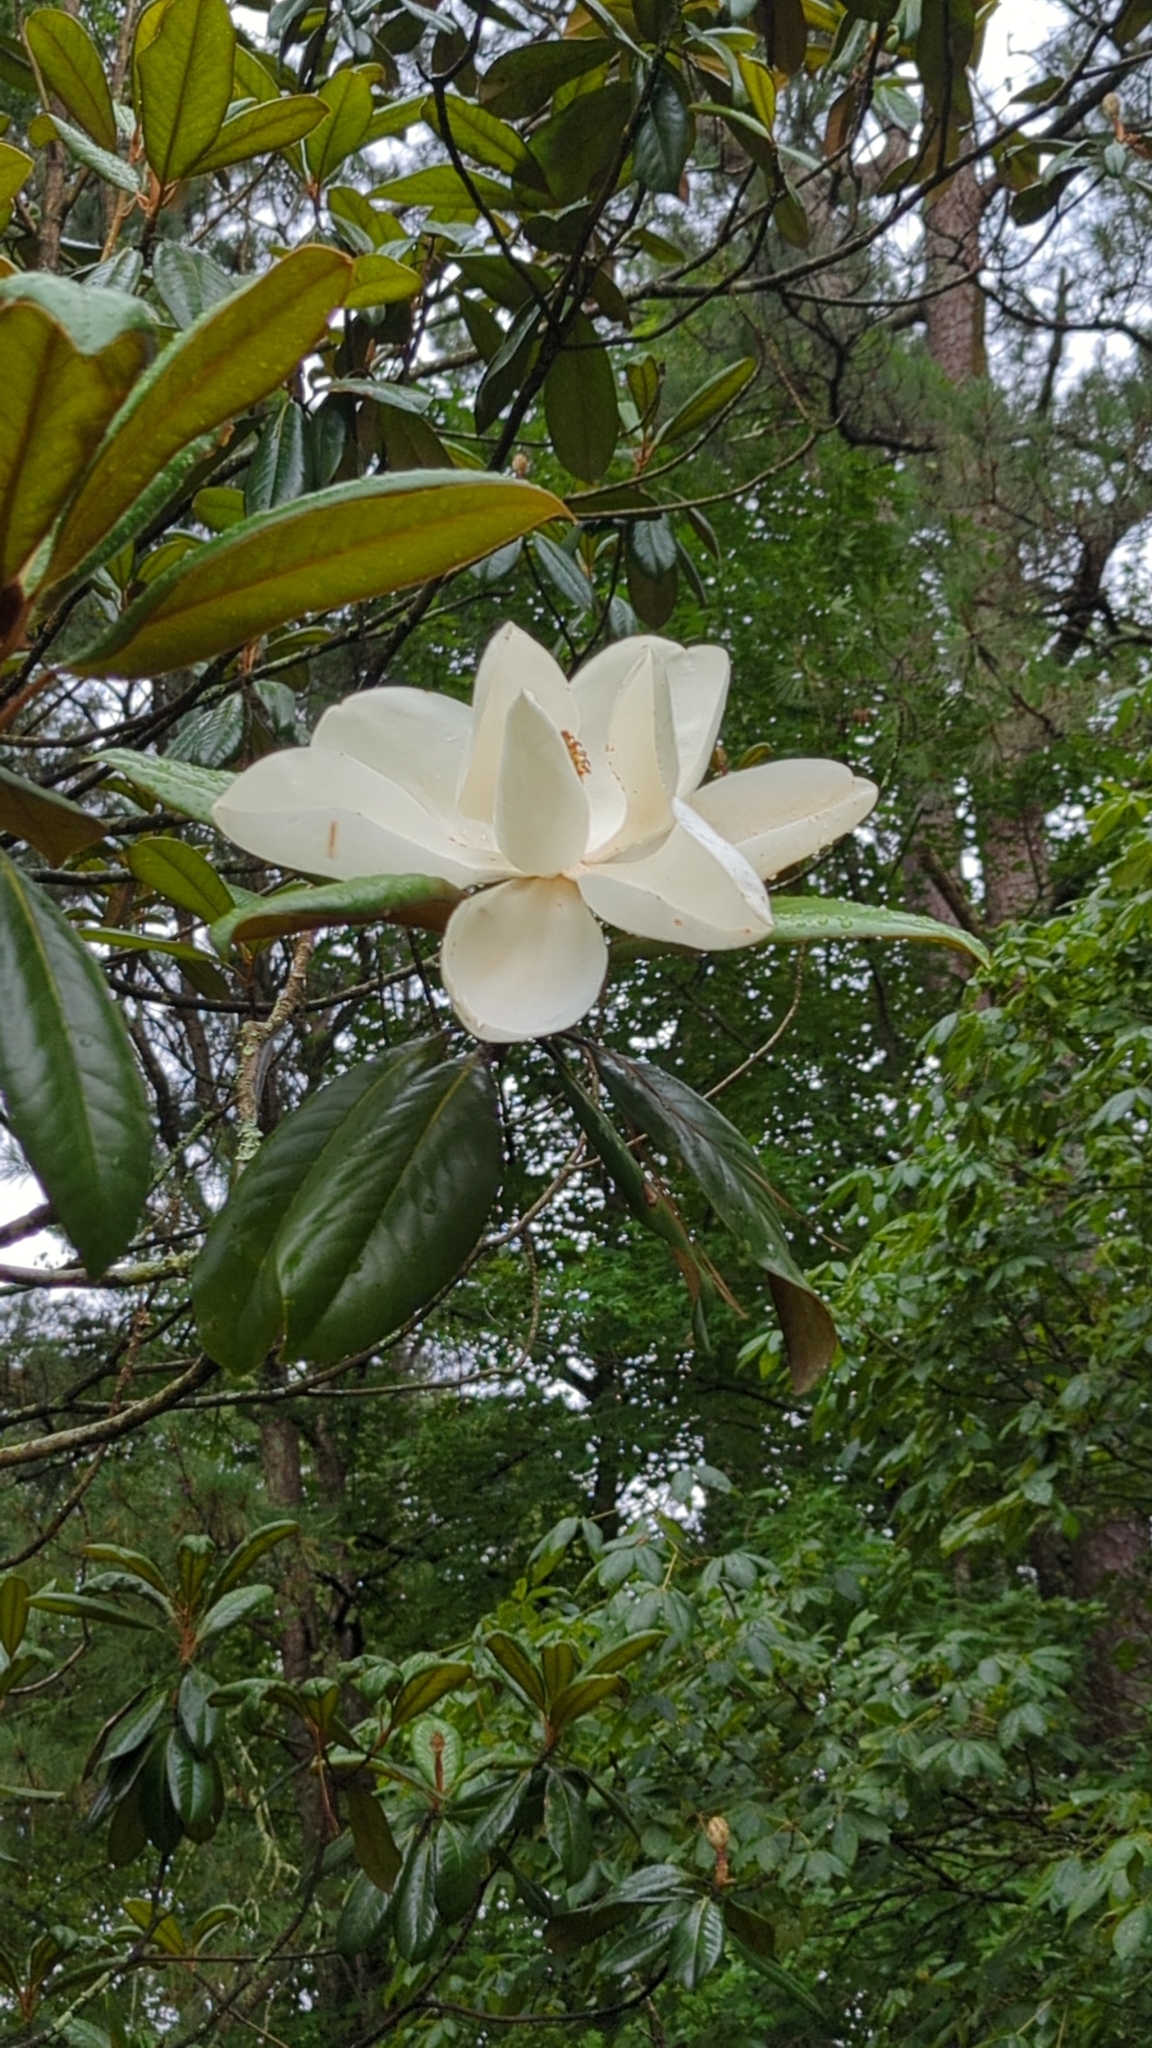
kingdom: Plantae
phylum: Tracheophyta
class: Magnoliopsida
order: Magnoliales
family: Magnoliaceae
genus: Magnolia
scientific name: Magnolia grandiflora
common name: Southern magnolia
